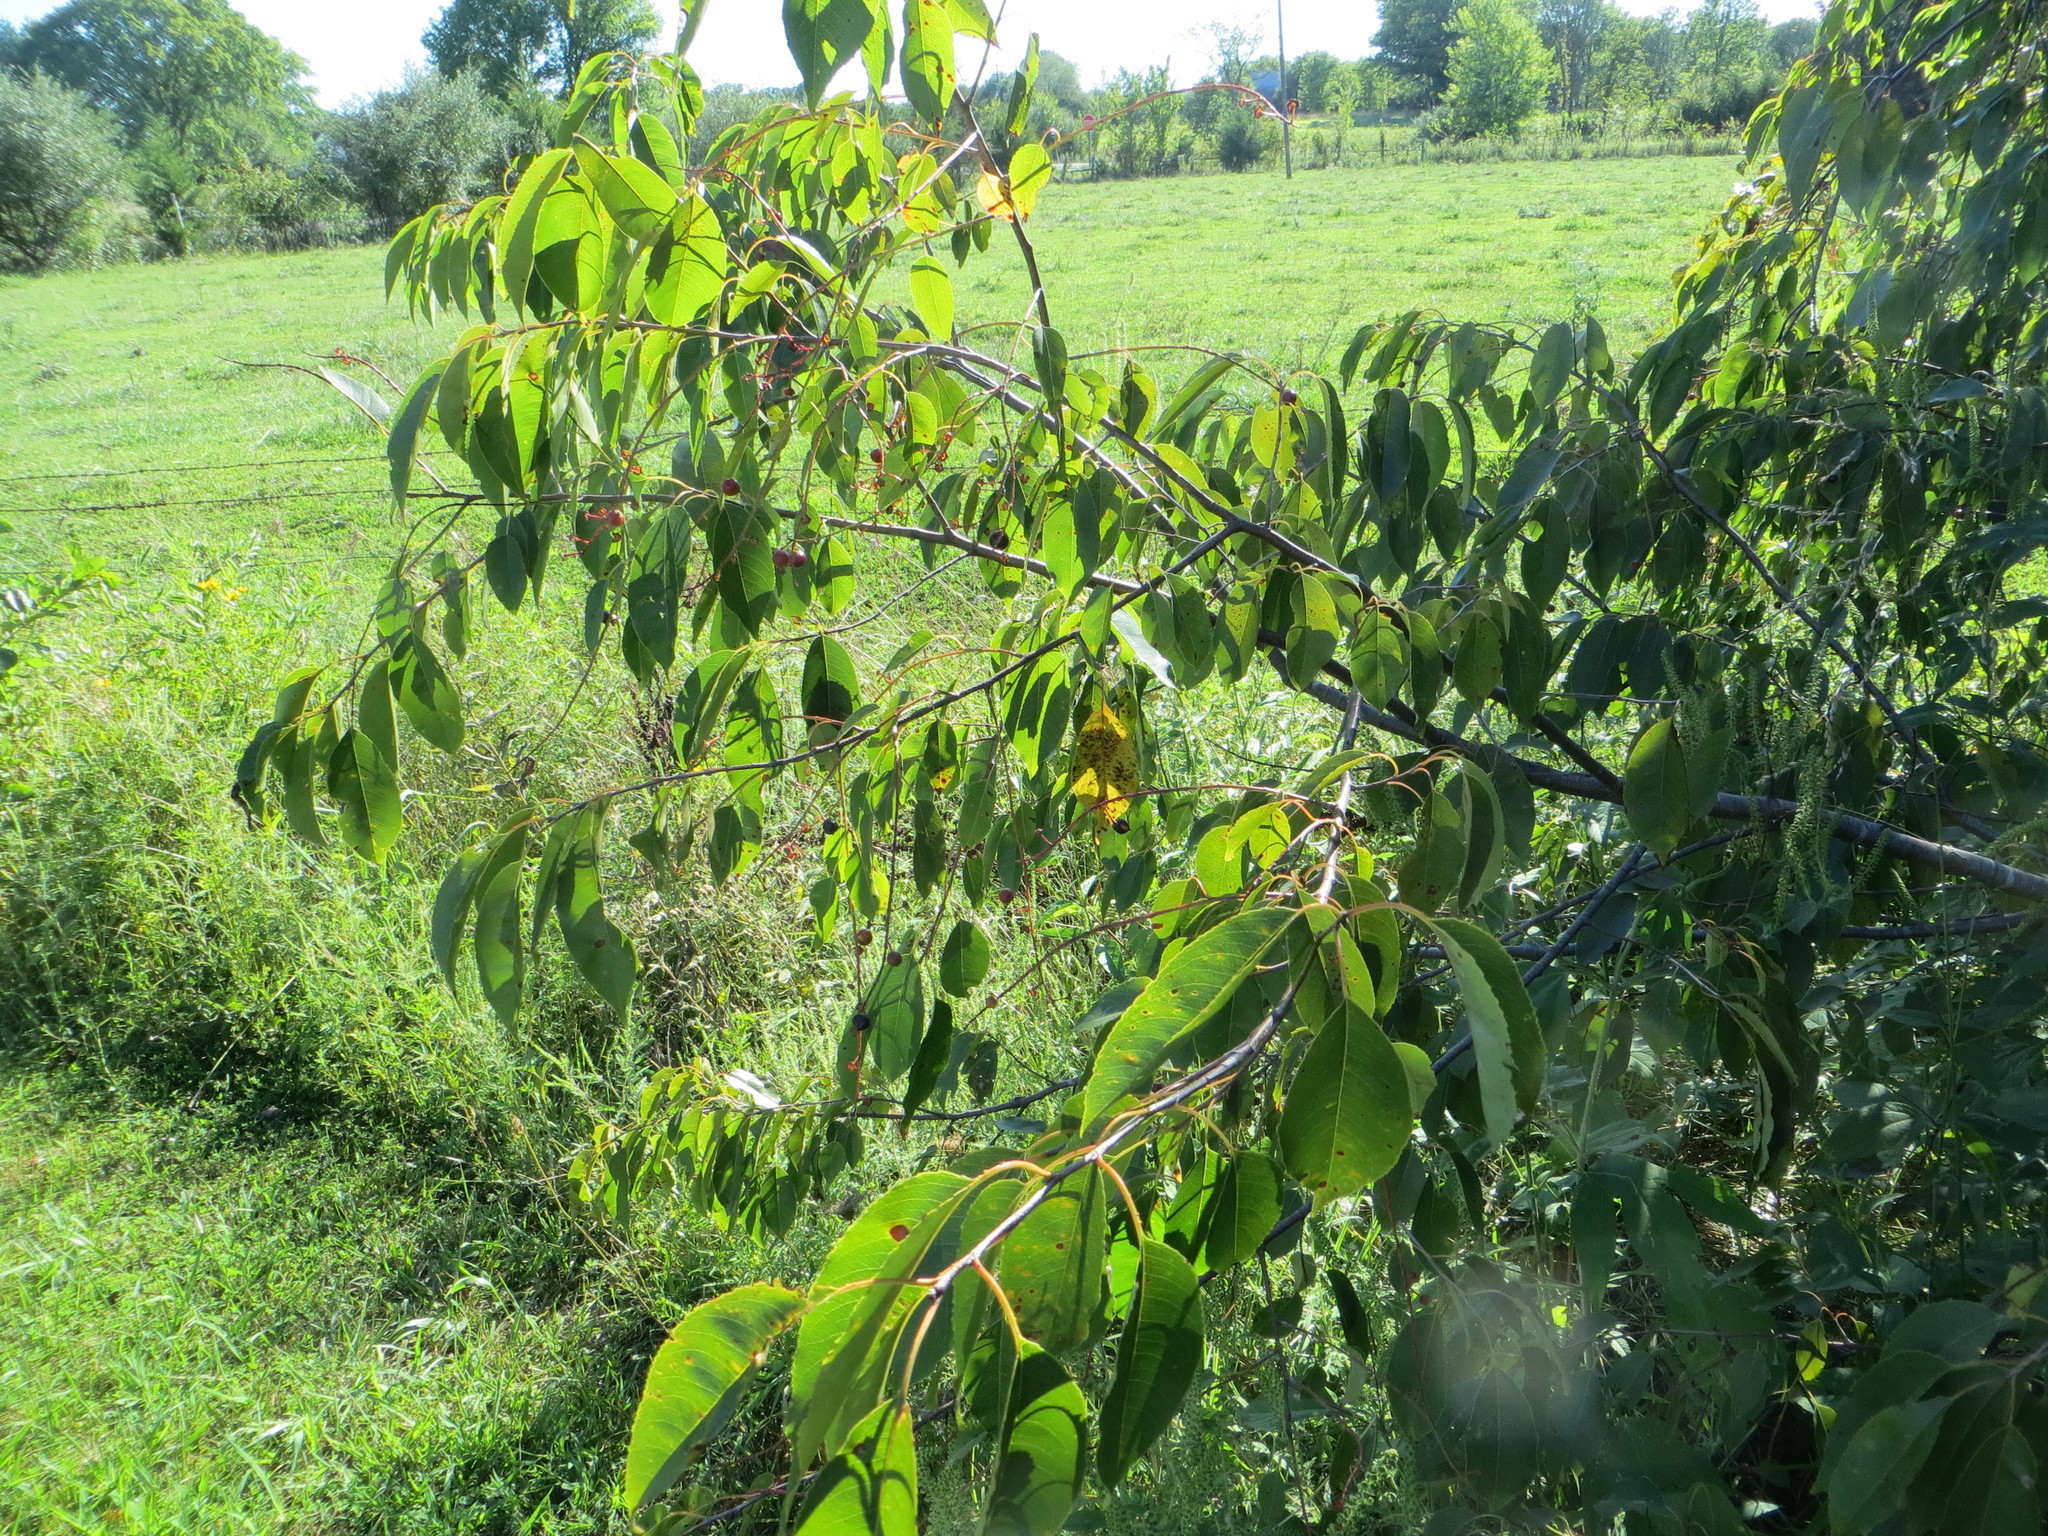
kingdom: Plantae
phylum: Tracheophyta
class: Magnoliopsida
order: Rosales
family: Rosaceae
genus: Prunus
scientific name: Prunus serotina
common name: Black cherry
